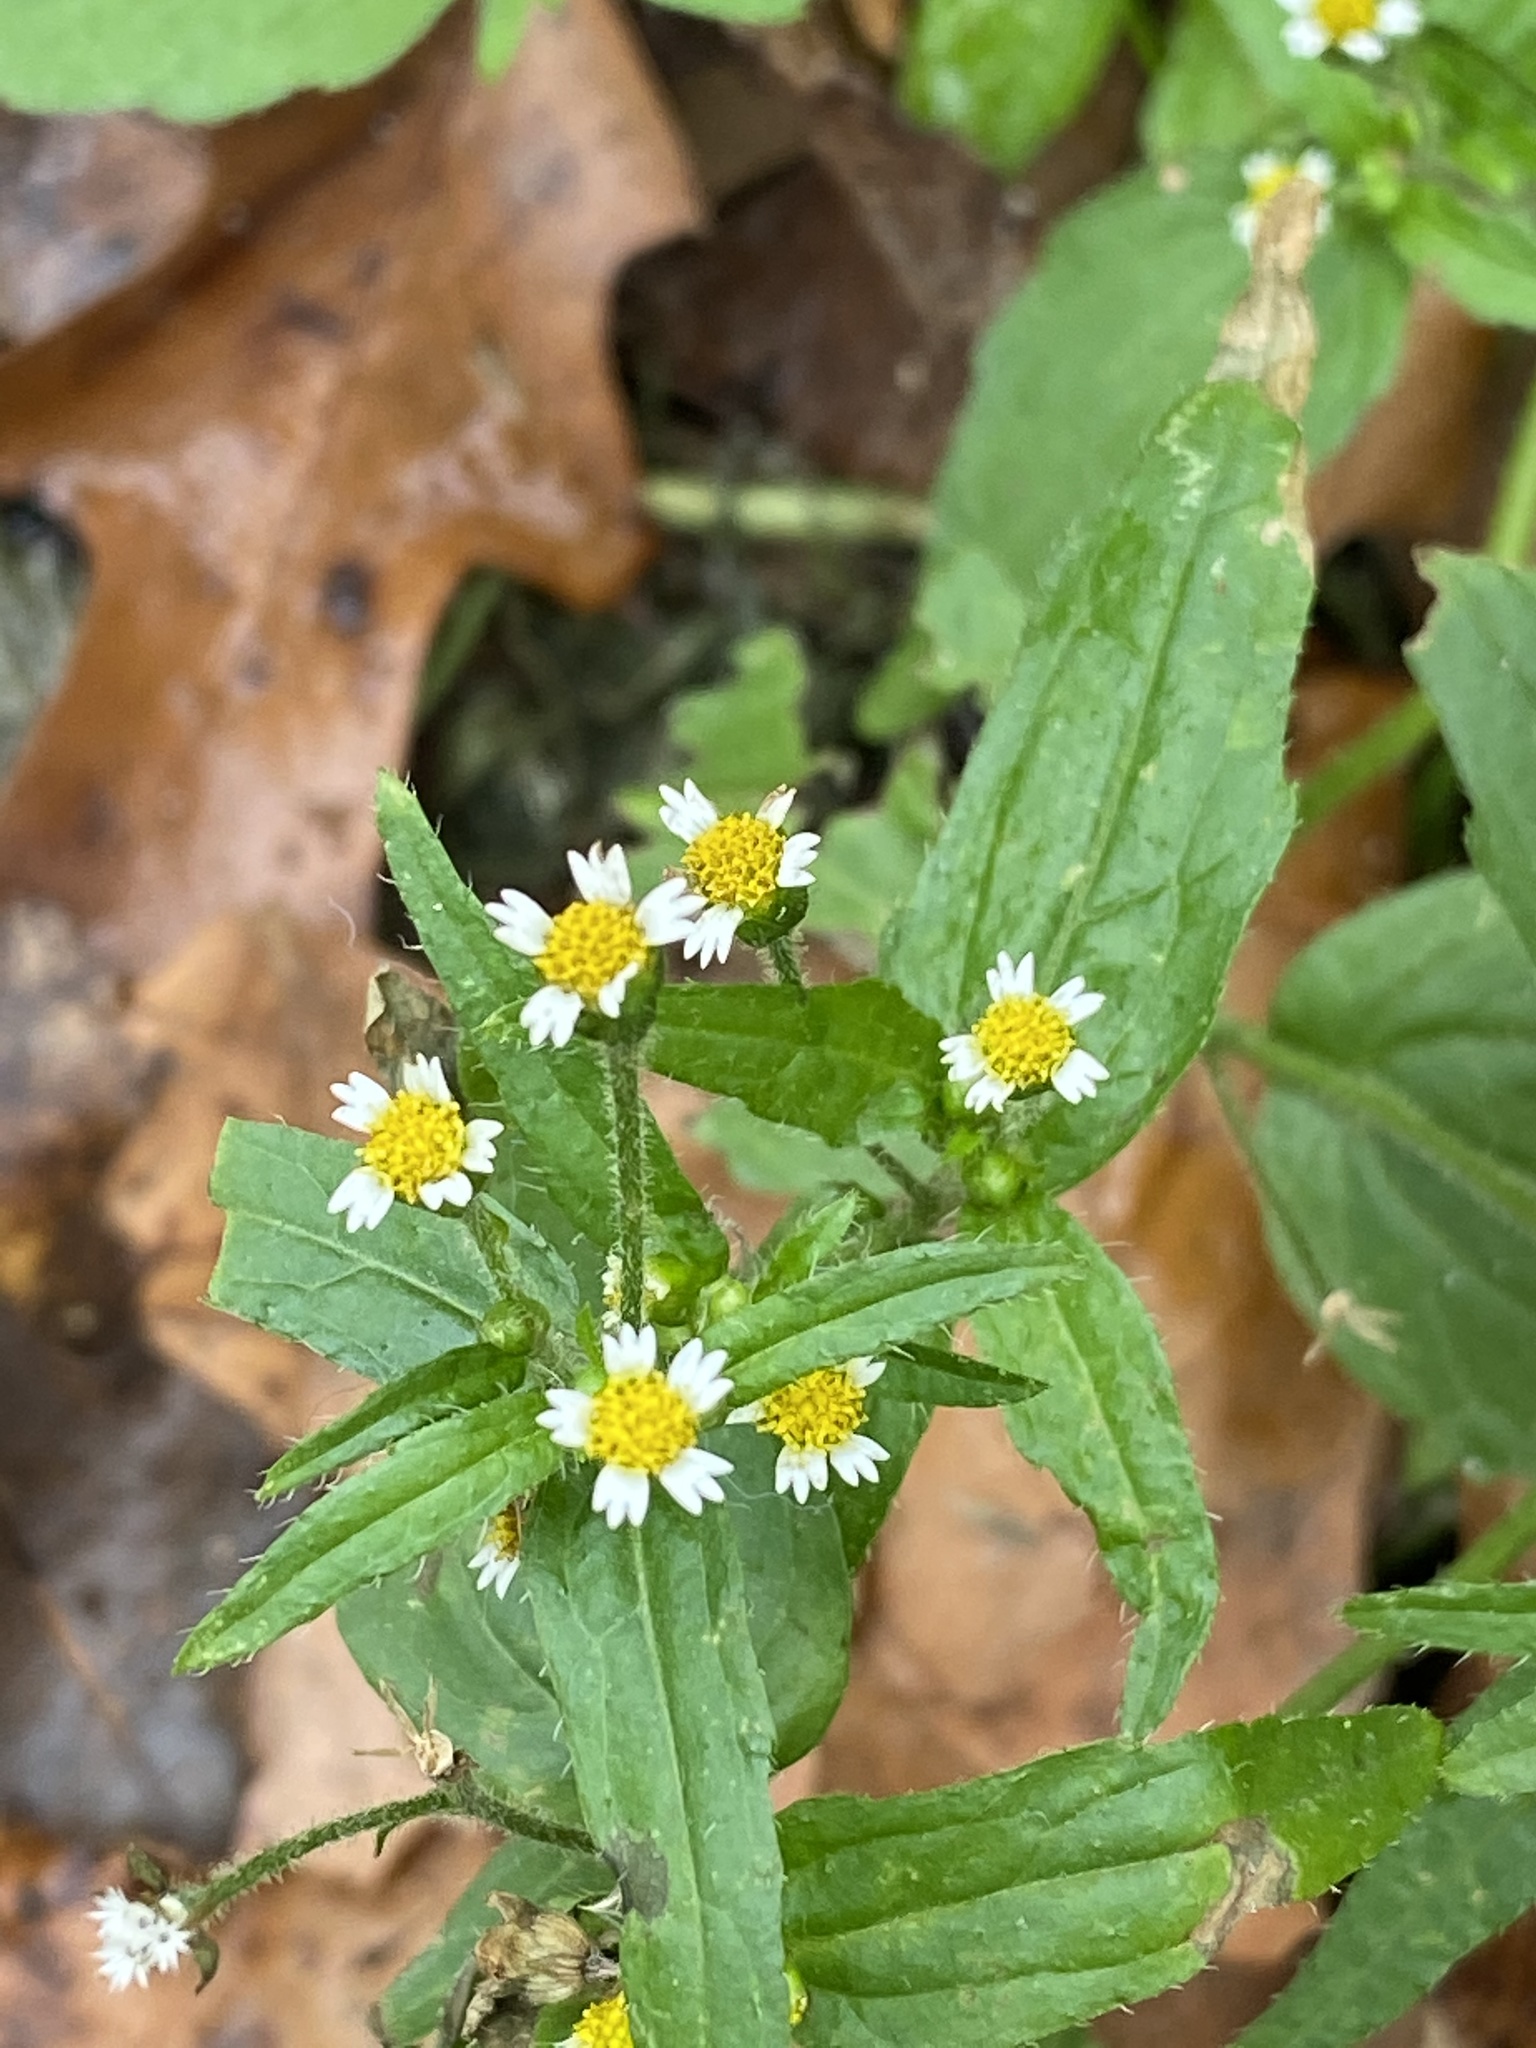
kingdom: Plantae
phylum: Tracheophyta
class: Magnoliopsida
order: Asterales
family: Asteraceae
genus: Galinsoga
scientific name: Galinsoga quadriradiata
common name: Shaggy soldier
